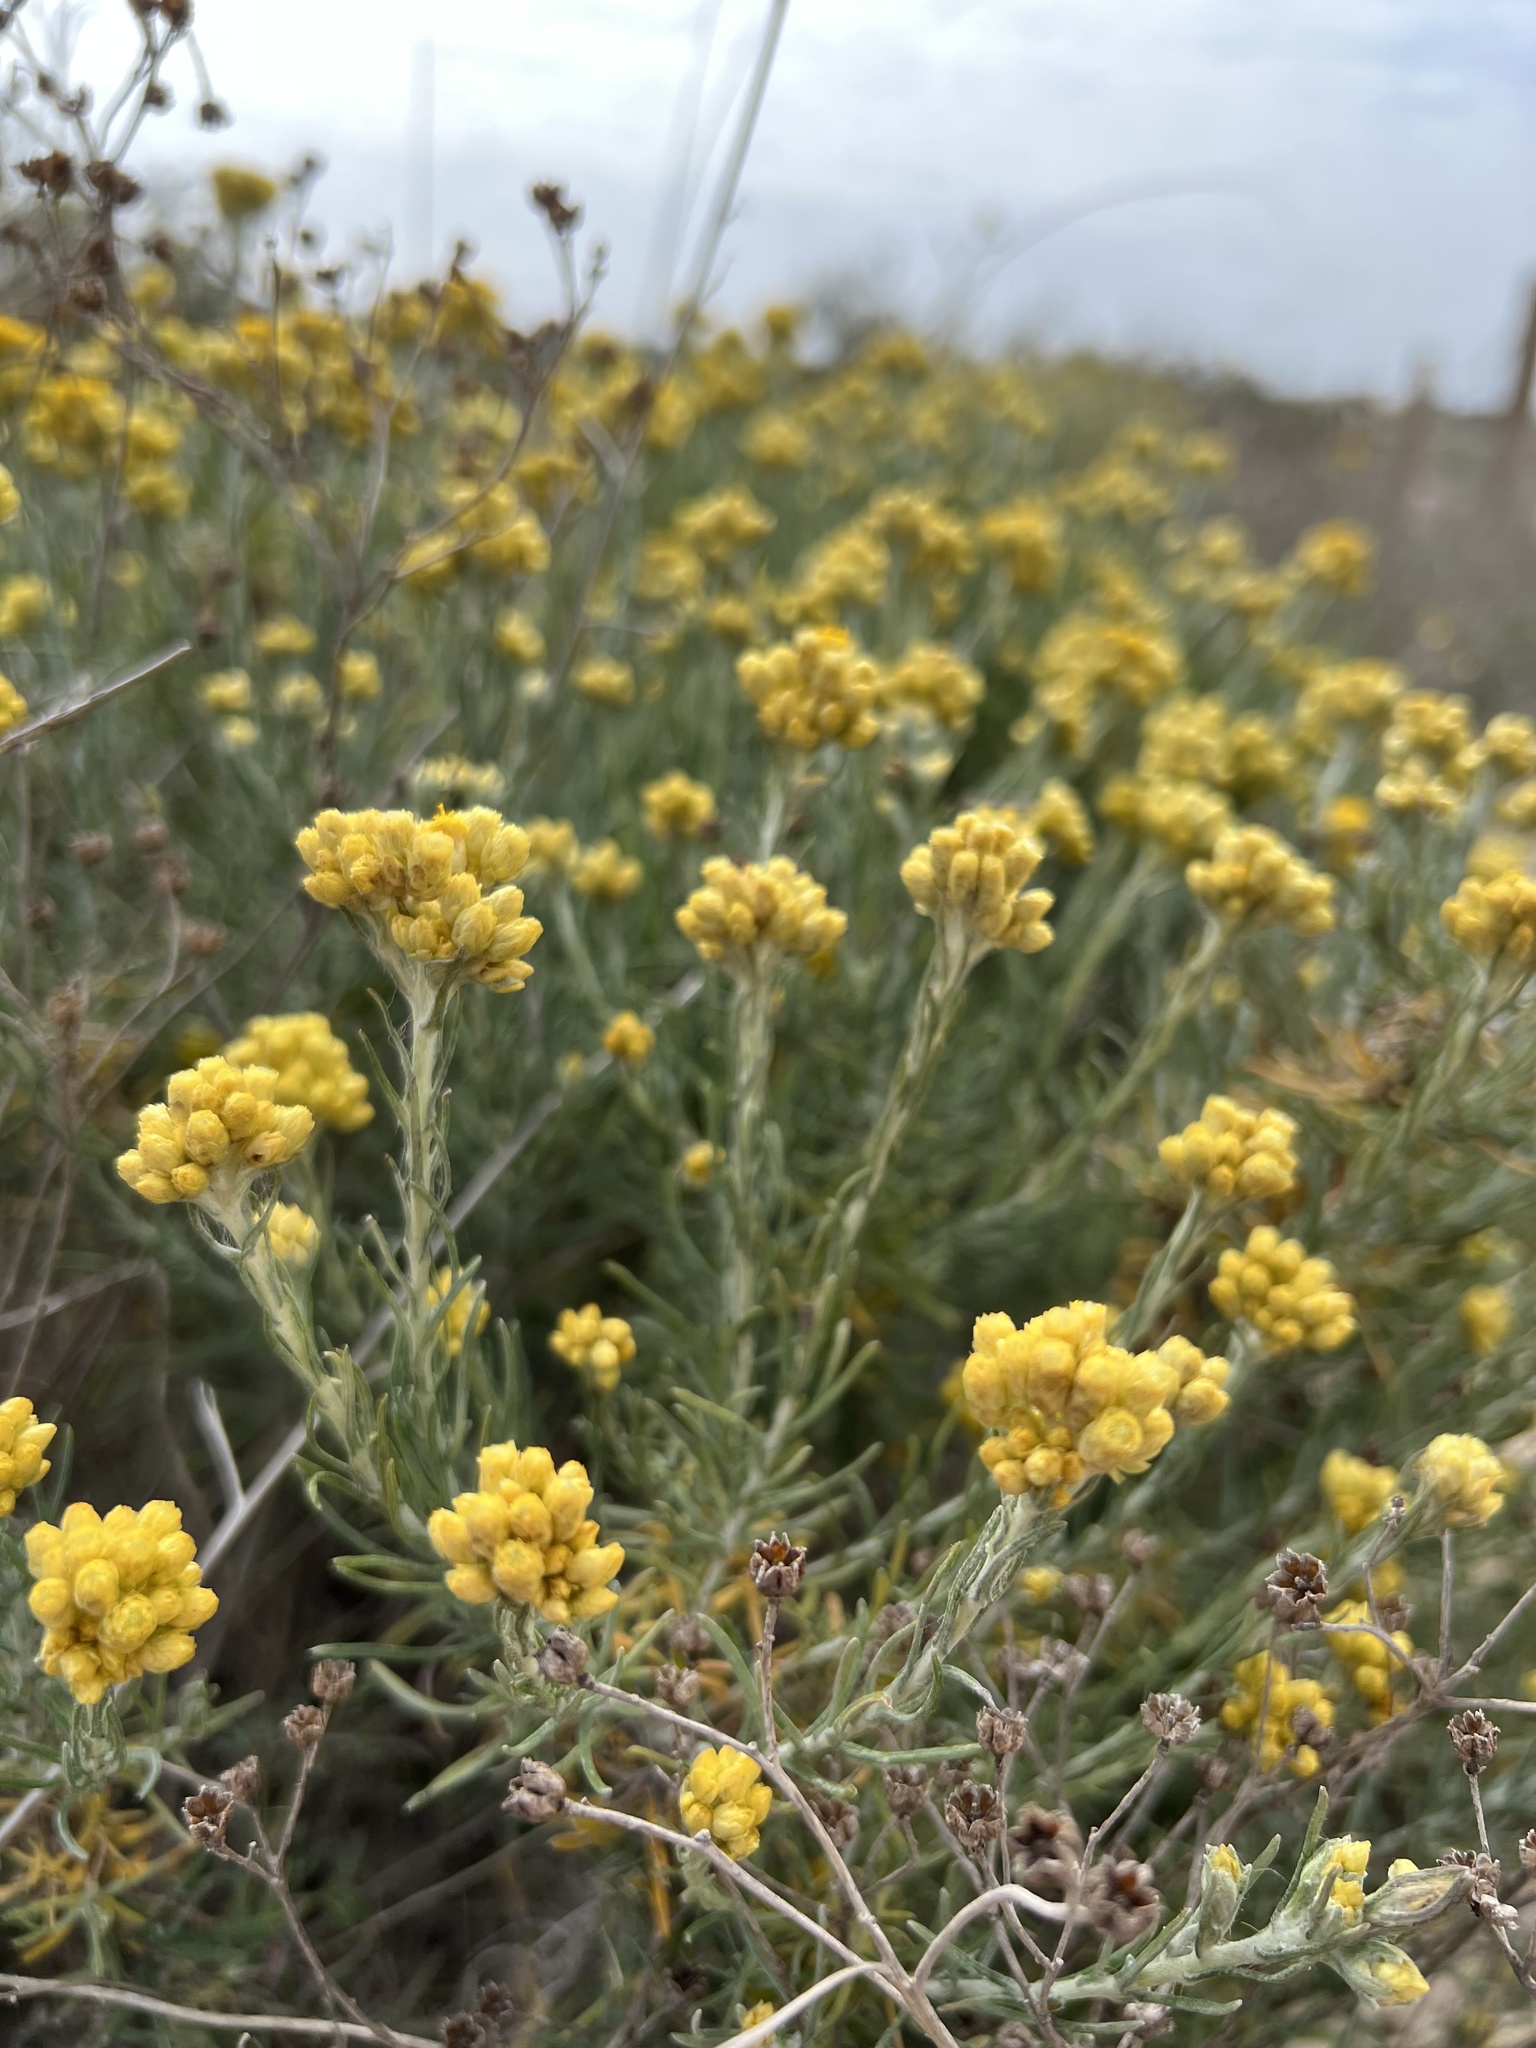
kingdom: Plantae
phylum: Tracheophyta
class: Magnoliopsida
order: Asterales
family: Asteraceae
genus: Helichrysum
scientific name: Helichrysum stoechas
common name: Goldilocks
